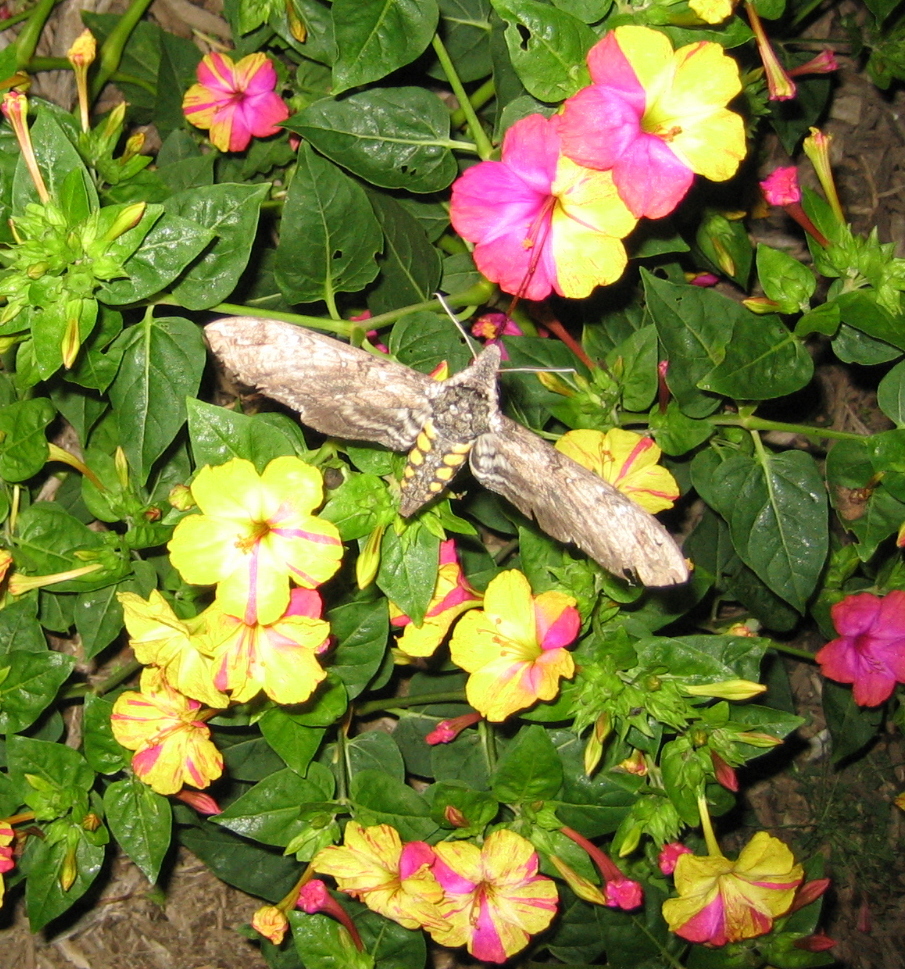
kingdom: Animalia
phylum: Arthropoda
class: Insecta
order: Lepidoptera
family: Sphingidae
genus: Manduca
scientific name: Manduca sexta
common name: Carolina sphinx
